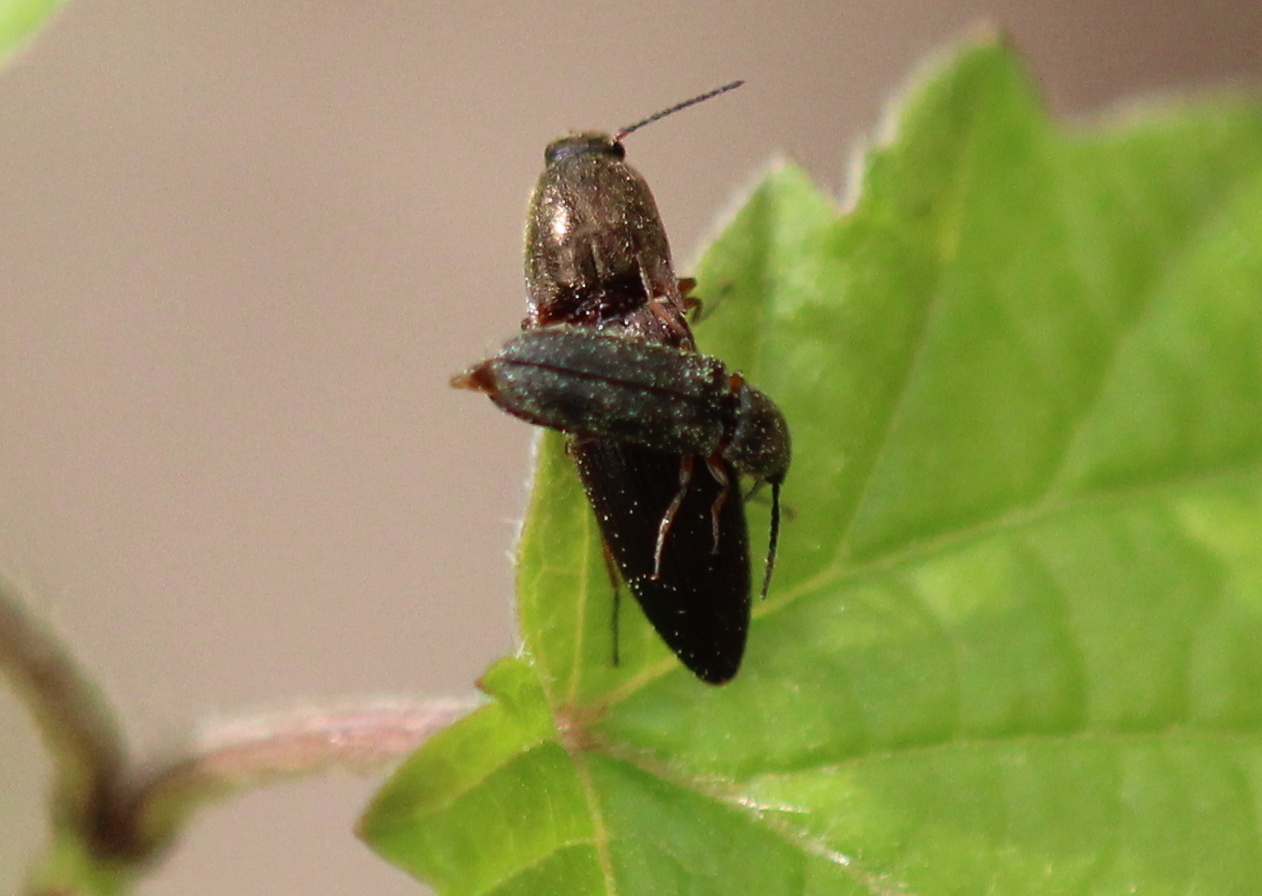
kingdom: Animalia
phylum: Arthropoda
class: Insecta
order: Coleoptera
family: Elateridae
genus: Limonius
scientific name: Limonius basilaris
